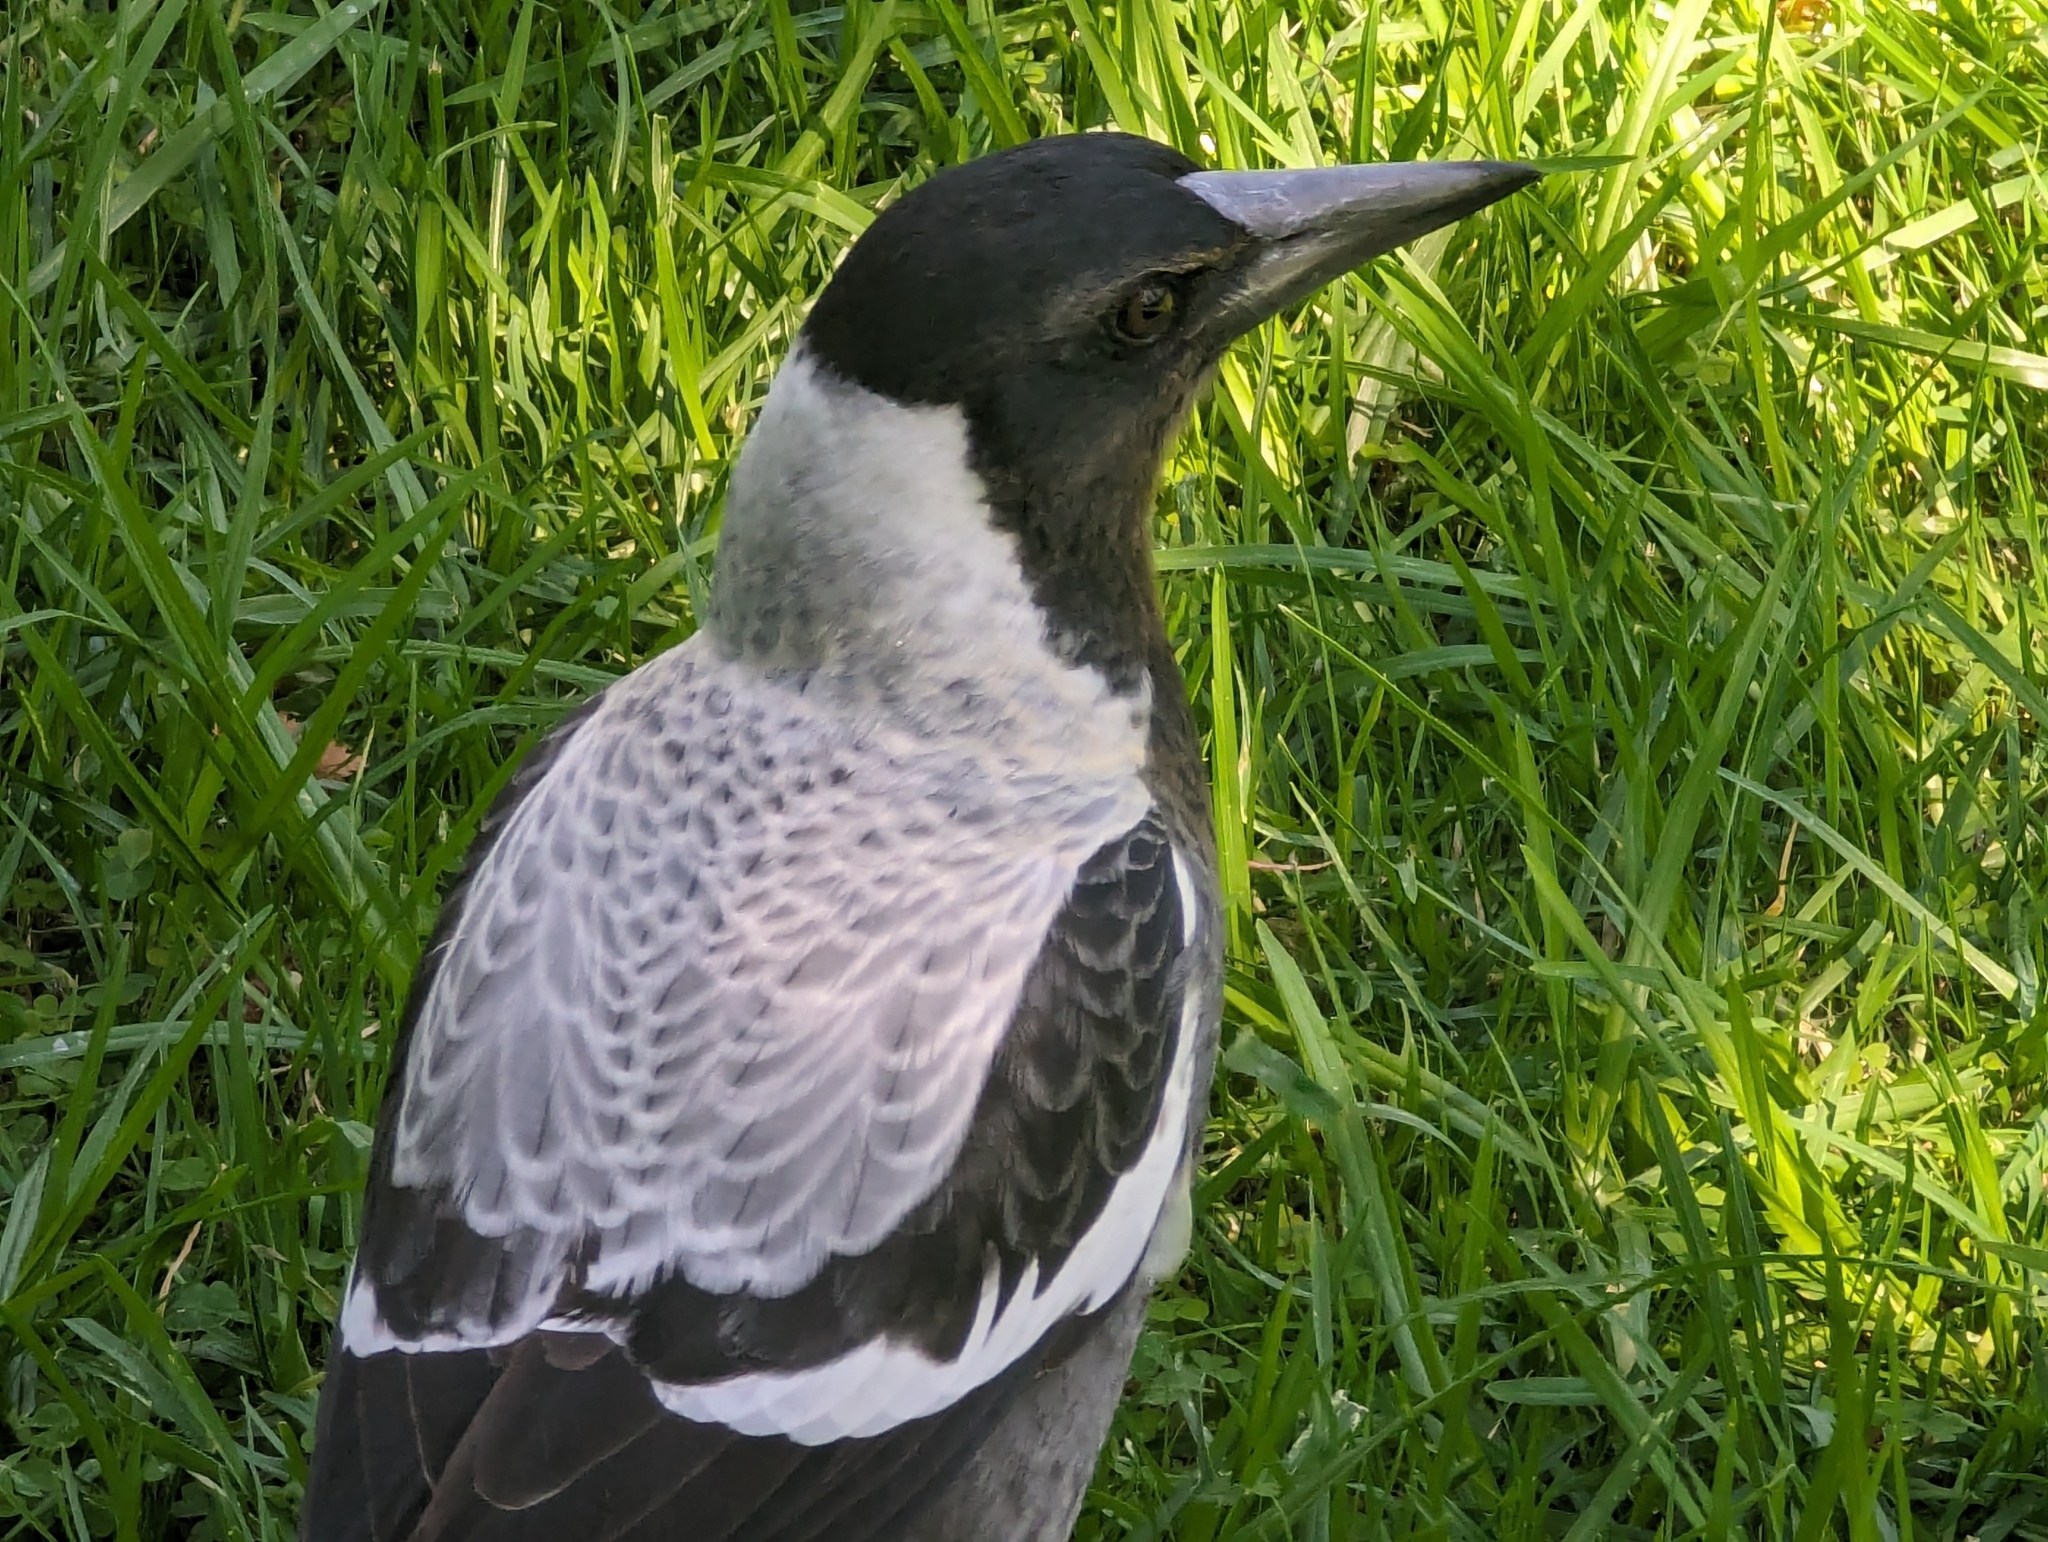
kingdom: Animalia
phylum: Chordata
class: Aves
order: Passeriformes
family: Cracticidae
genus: Gymnorhina
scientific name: Gymnorhina tibicen
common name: Australian magpie
